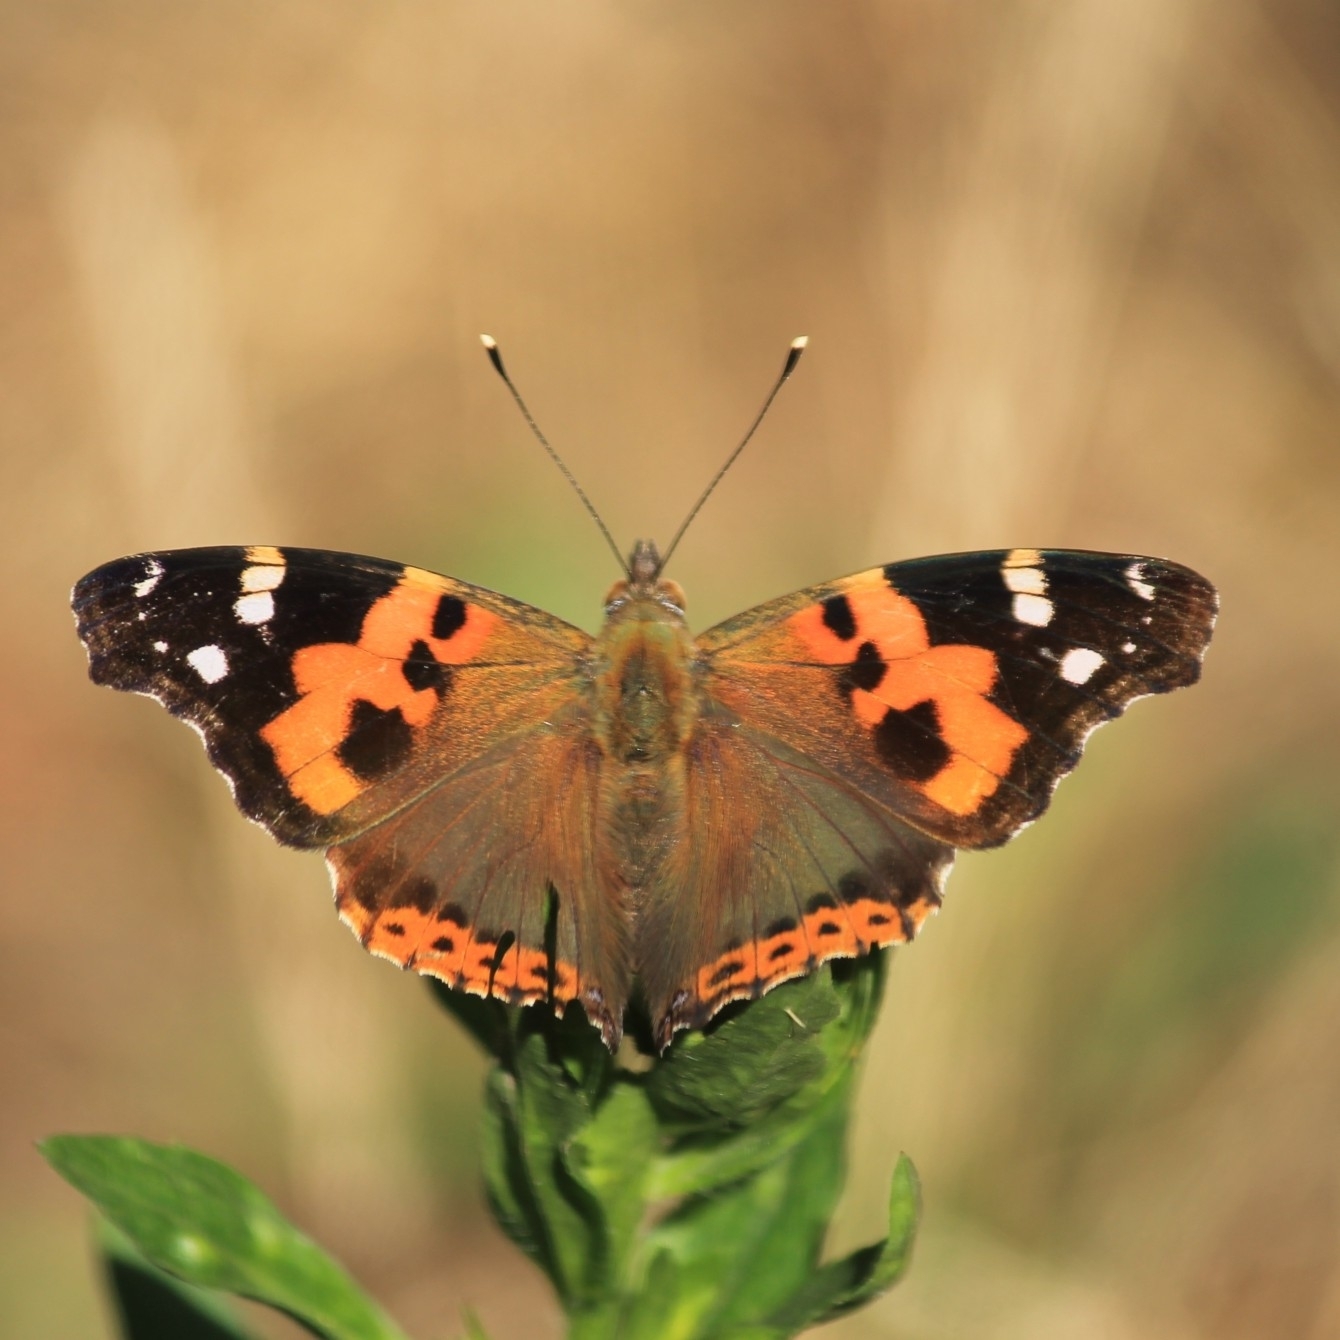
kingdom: Animalia
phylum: Arthropoda
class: Insecta
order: Lepidoptera
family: Nymphalidae
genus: Vanessa
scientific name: Vanessa indica
